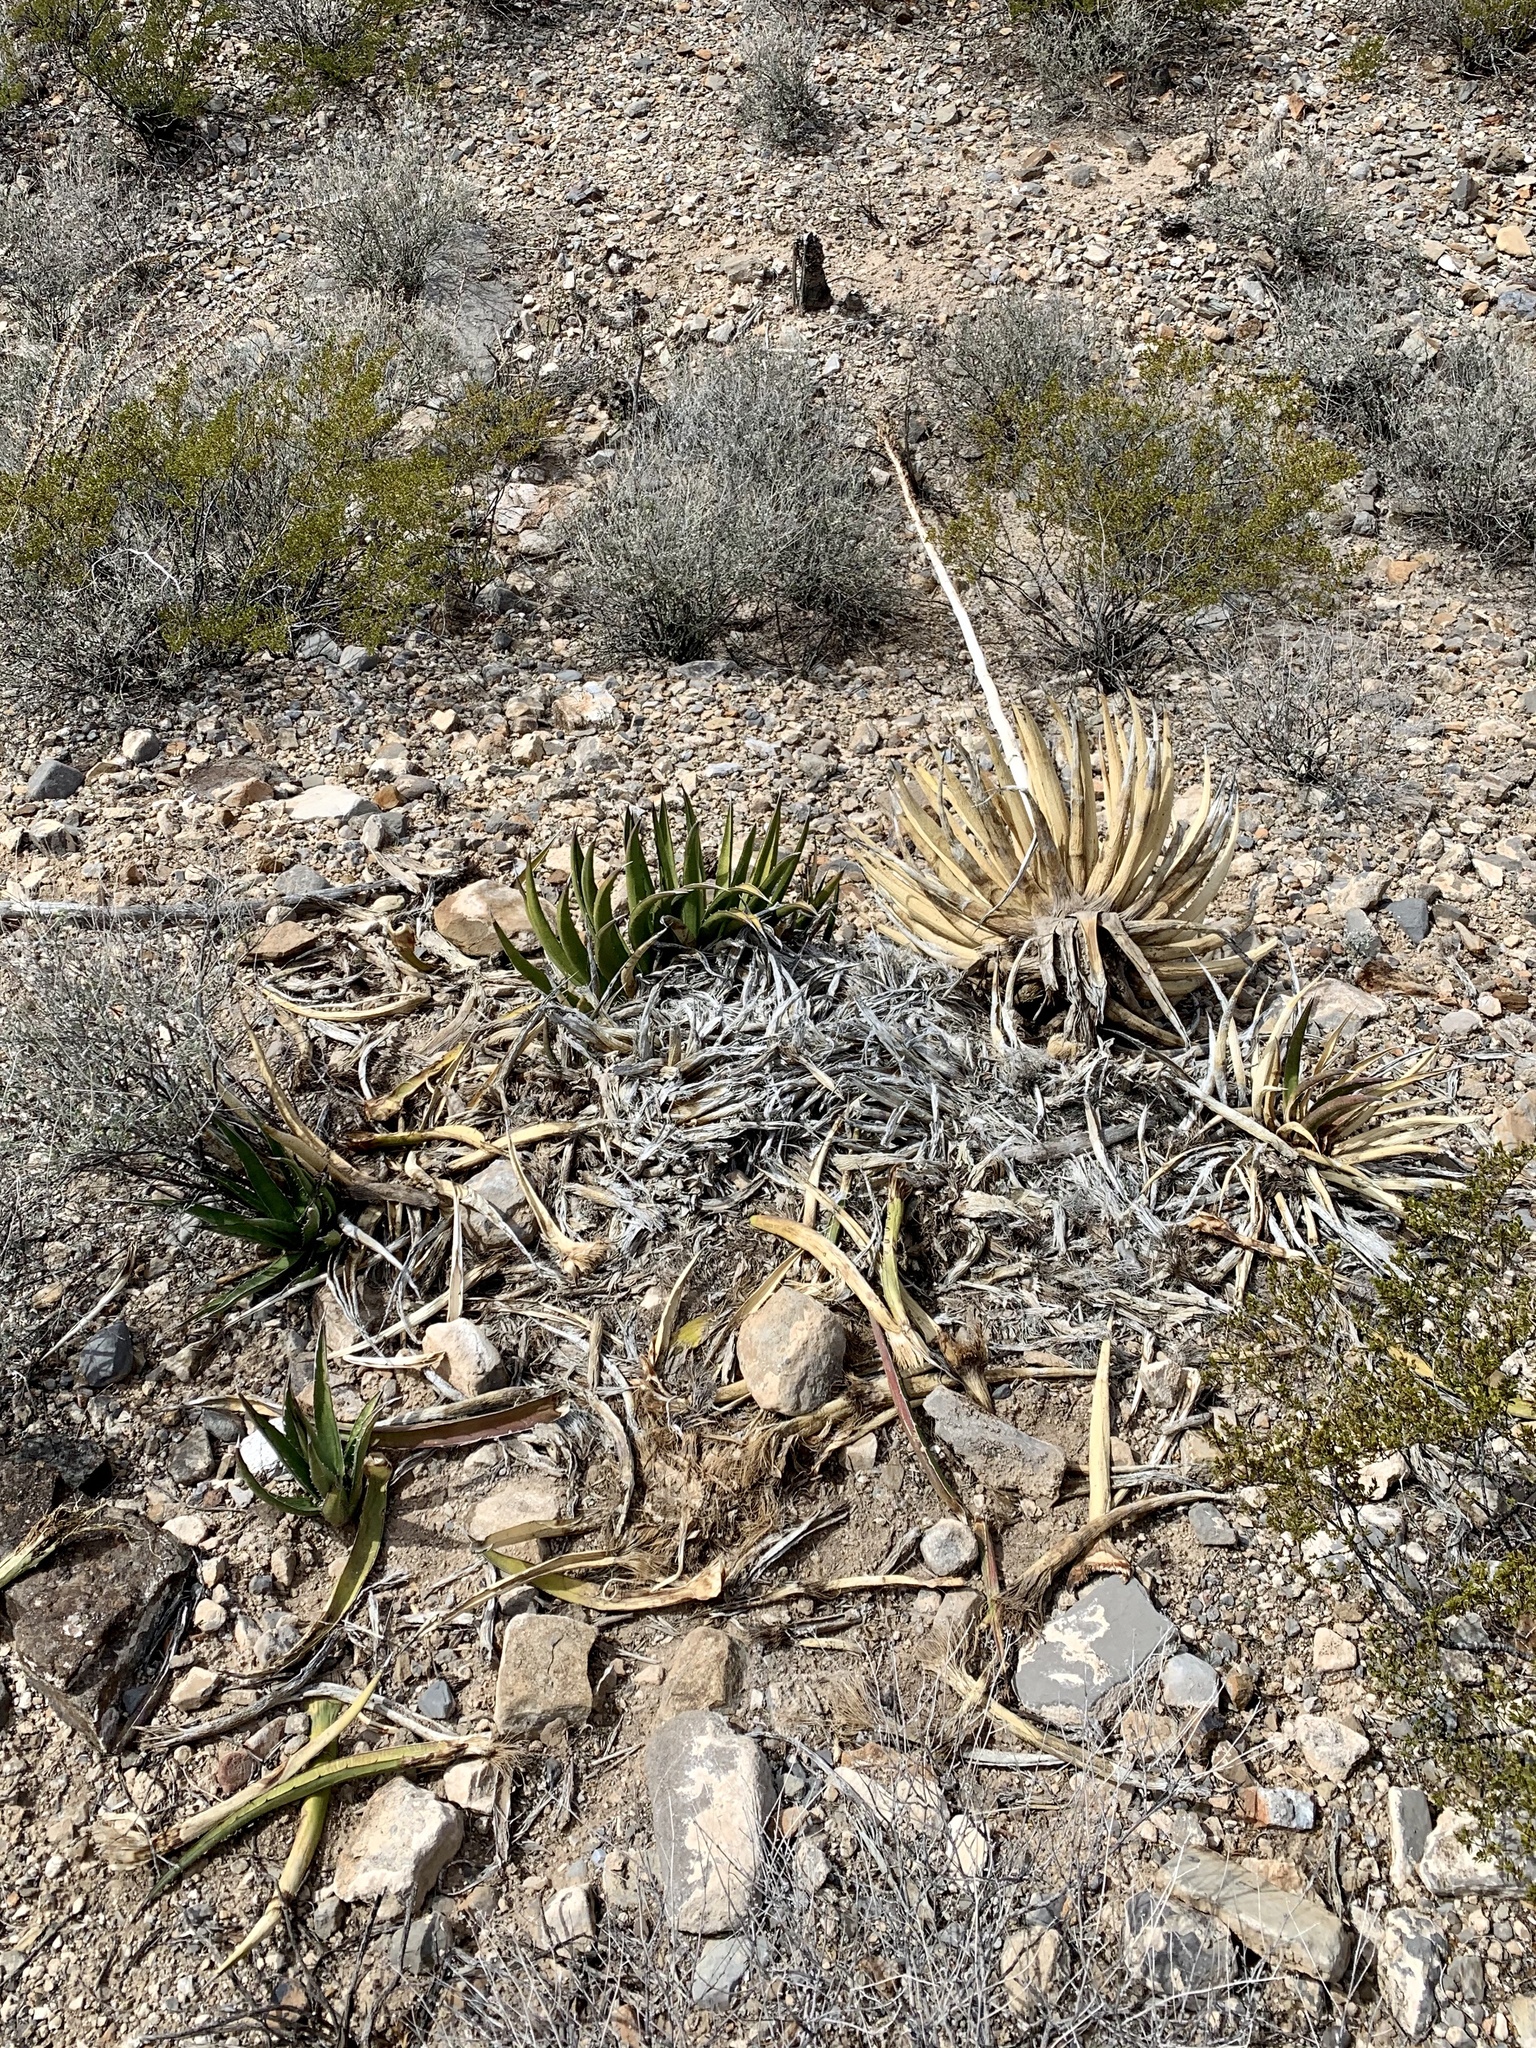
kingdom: Plantae
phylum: Tracheophyta
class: Liliopsida
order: Asparagales
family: Asparagaceae
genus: Agave
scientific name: Agave lechuguilla
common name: Lecheguilla agave
